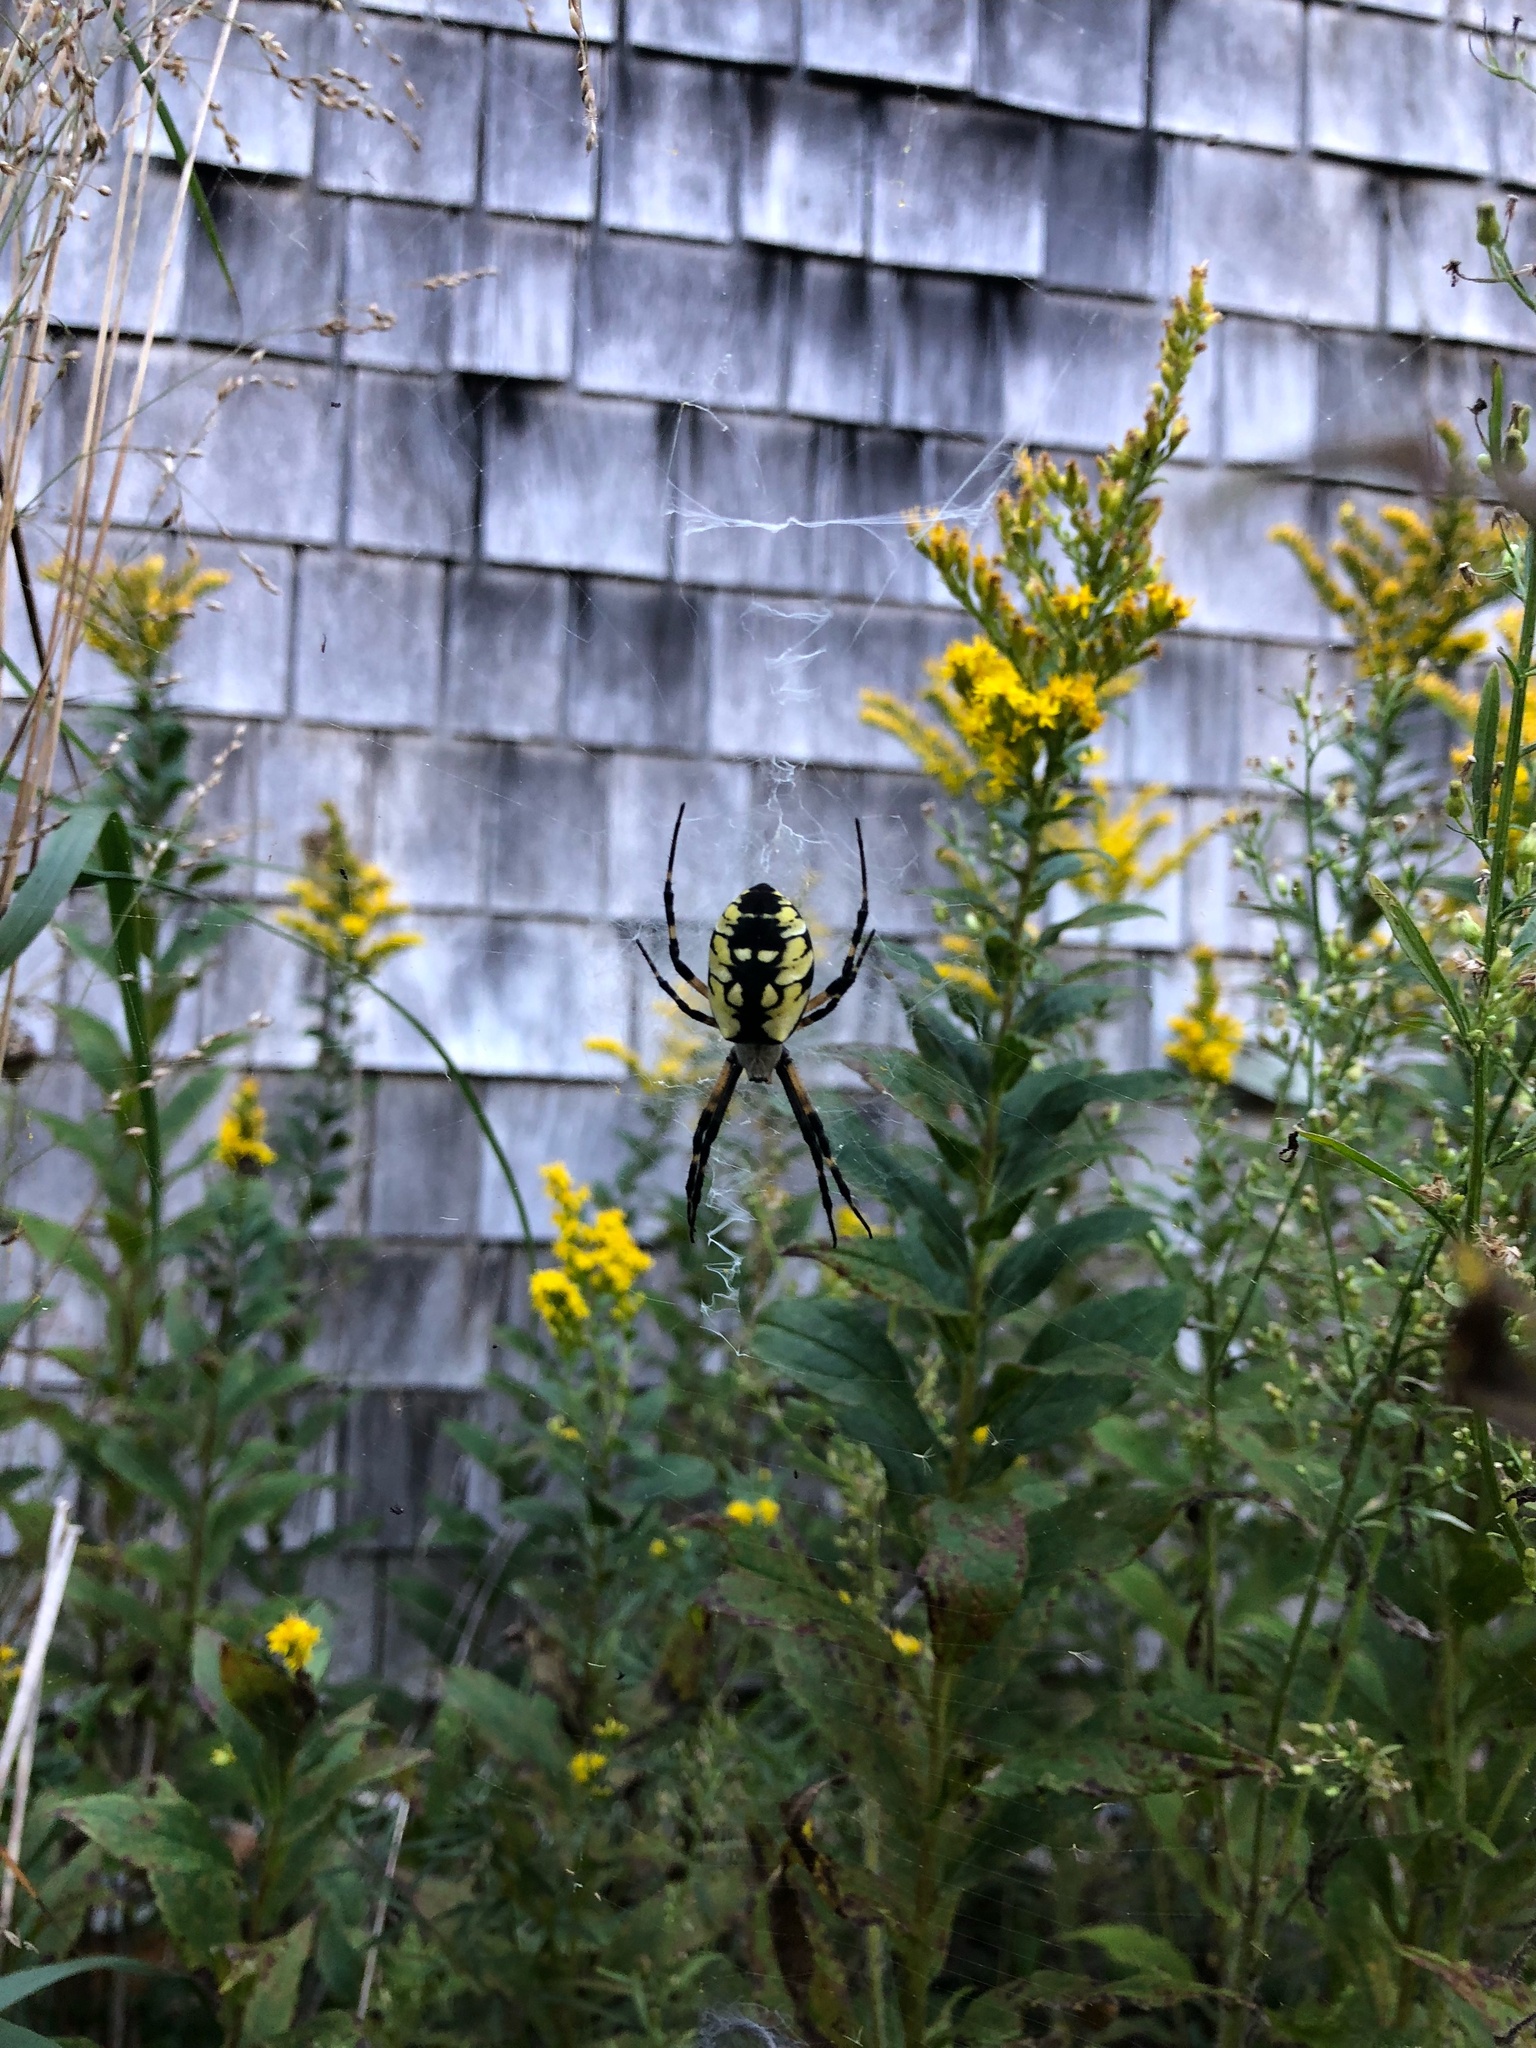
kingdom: Animalia
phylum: Arthropoda
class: Arachnida
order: Araneae
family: Araneidae
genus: Argiope
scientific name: Argiope aurantia
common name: Orb weavers
